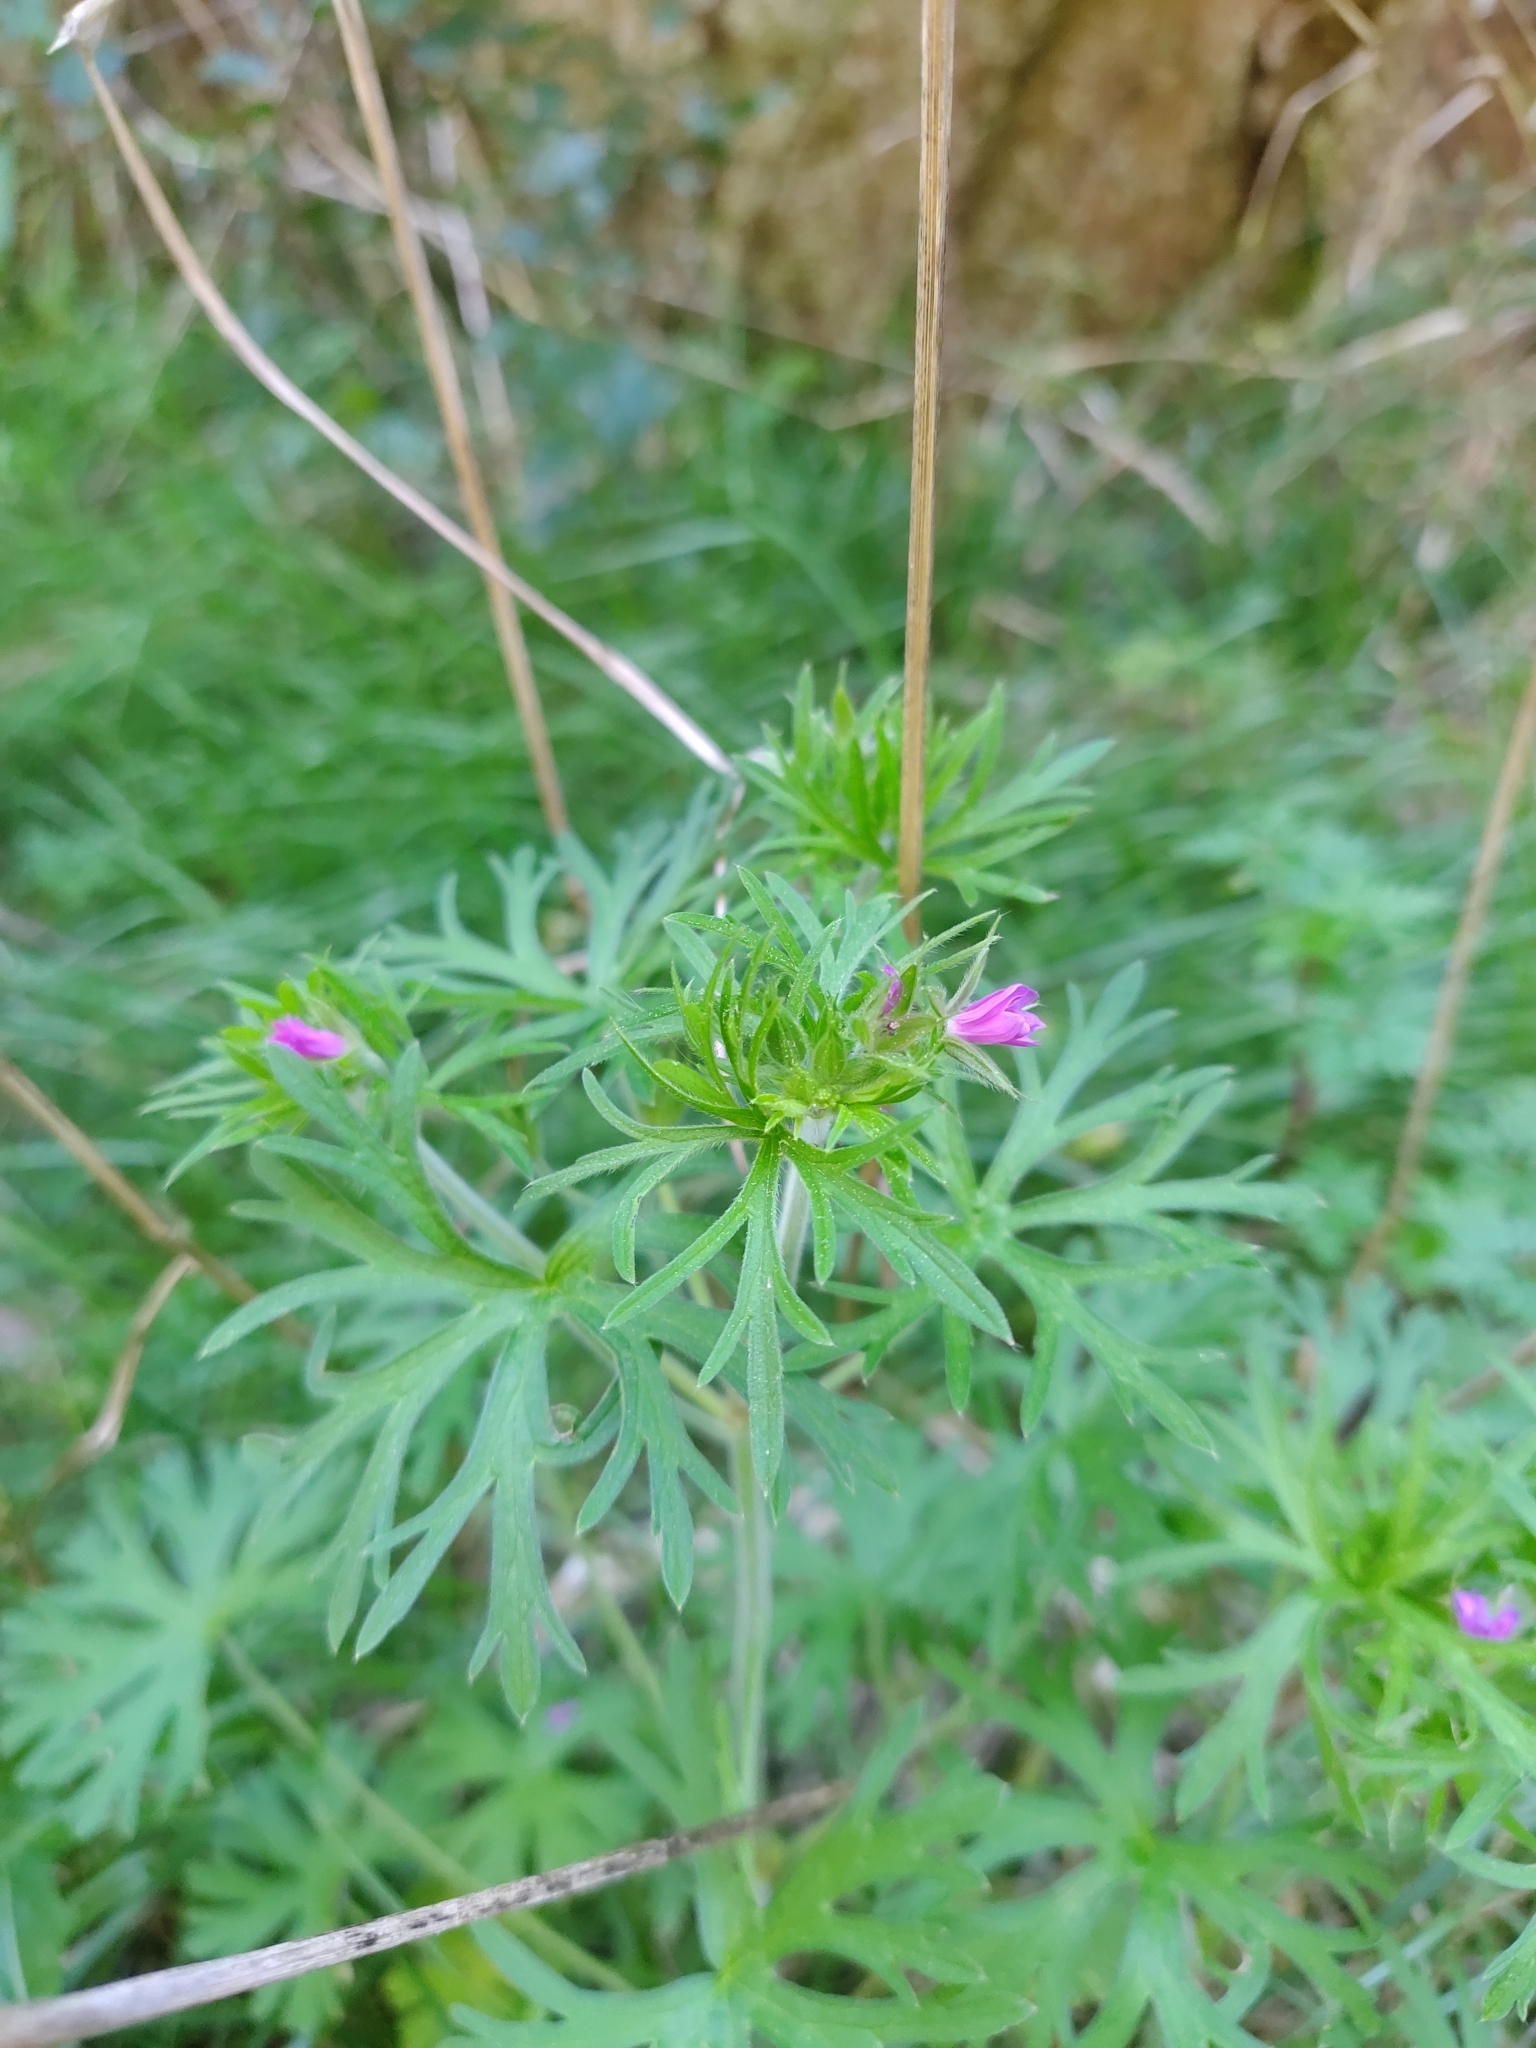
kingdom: Plantae
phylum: Tracheophyta
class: Magnoliopsida
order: Geraniales
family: Geraniaceae
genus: Geranium
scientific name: Geranium dissectum
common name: Cut-leaved crane's-bill
